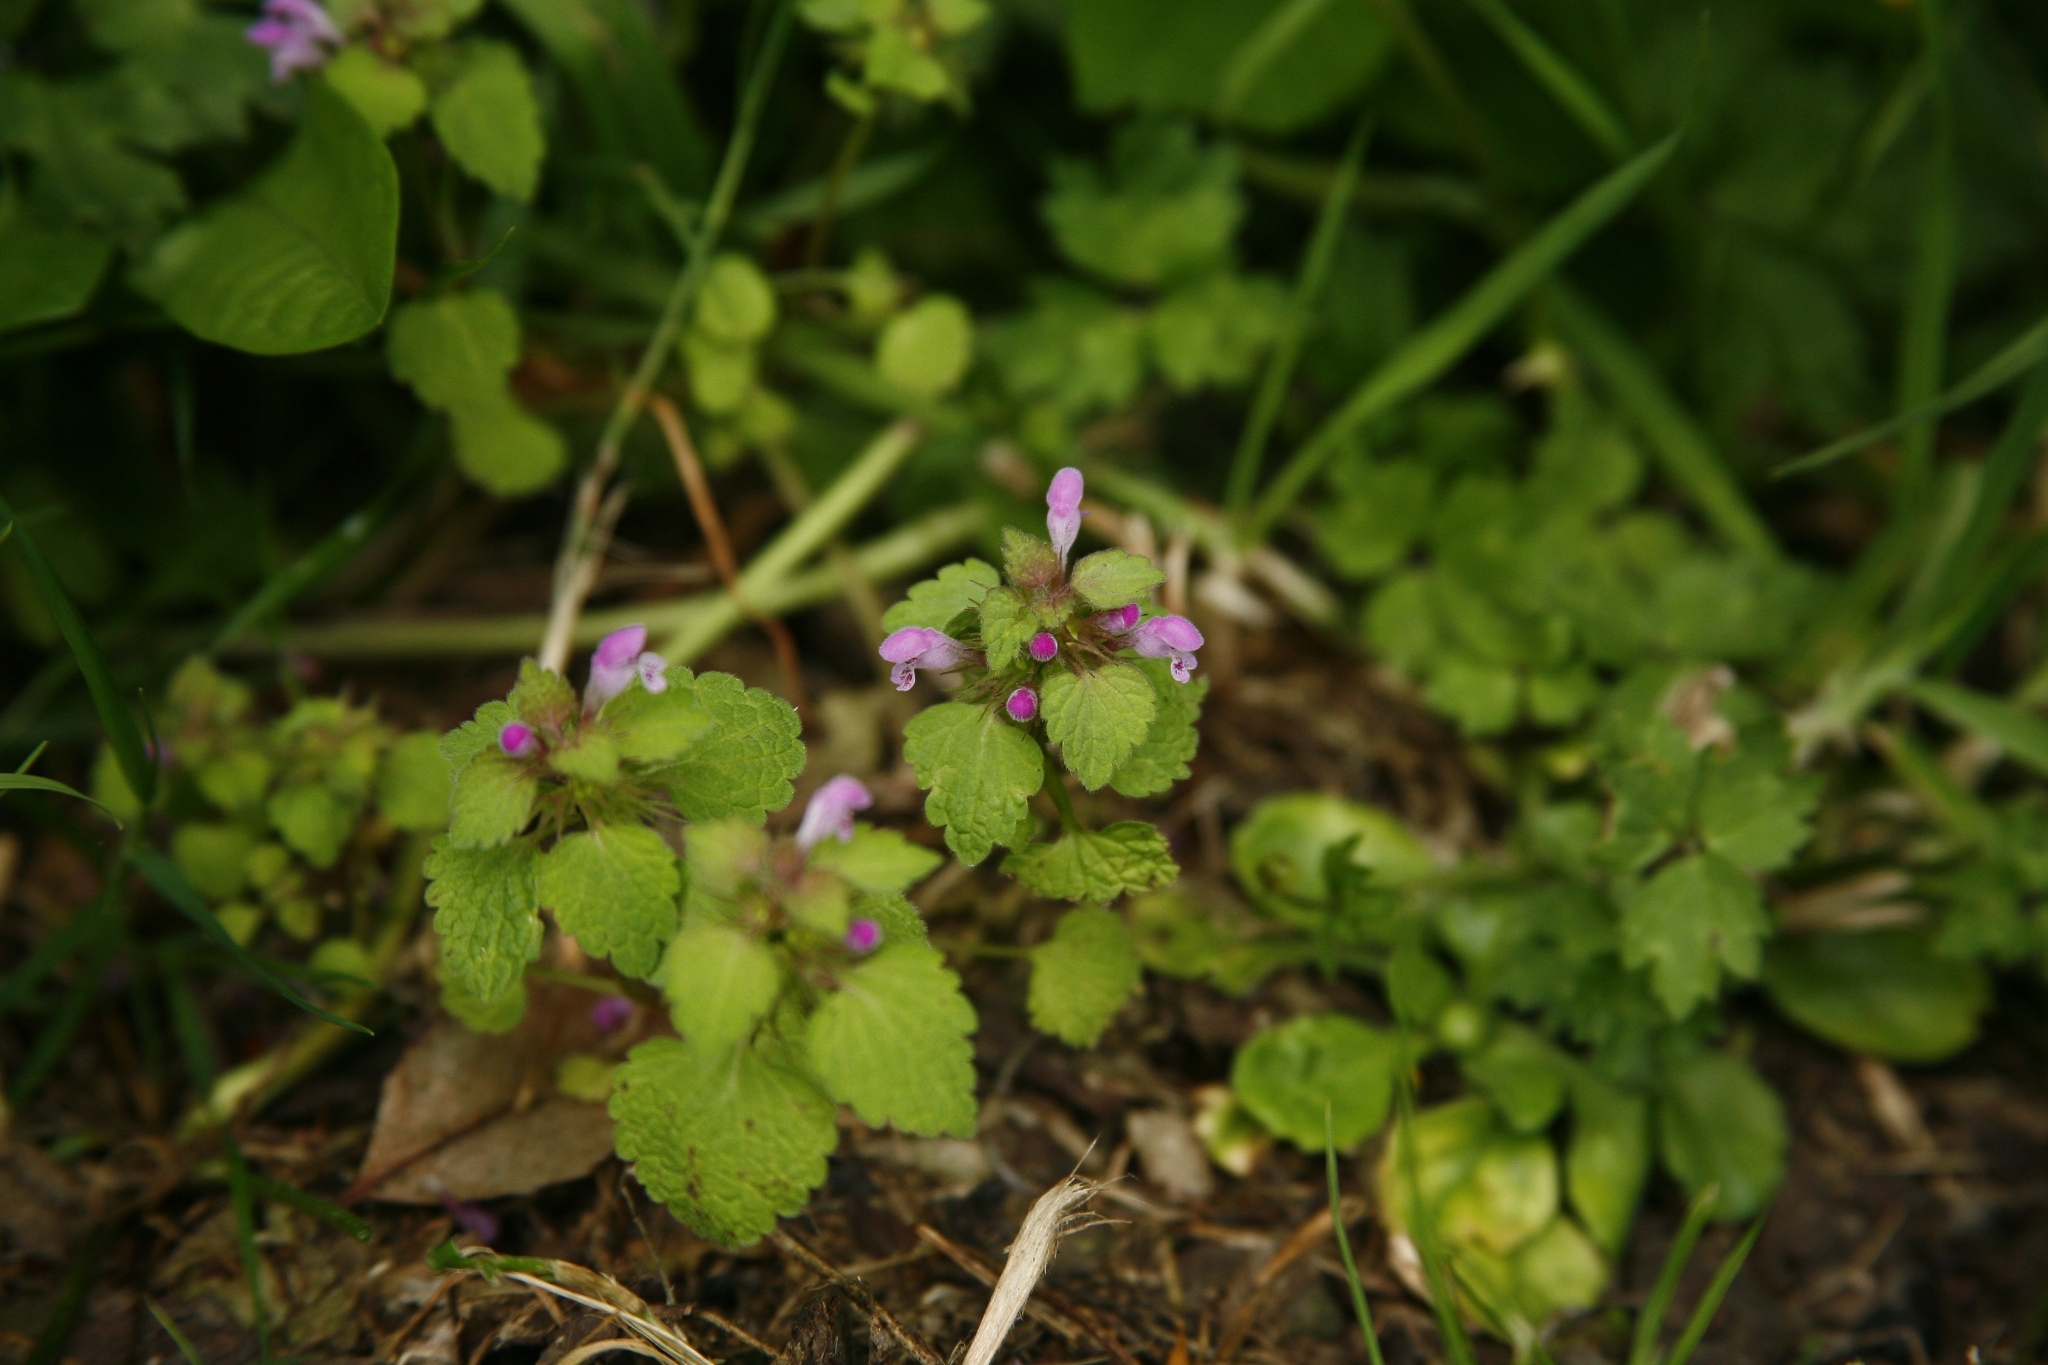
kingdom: Plantae
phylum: Tracheophyta
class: Magnoliopsida
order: Lamiales
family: Lamiaceae
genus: Lamium
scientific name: Lamium purpureum
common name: Red dead-nettle
